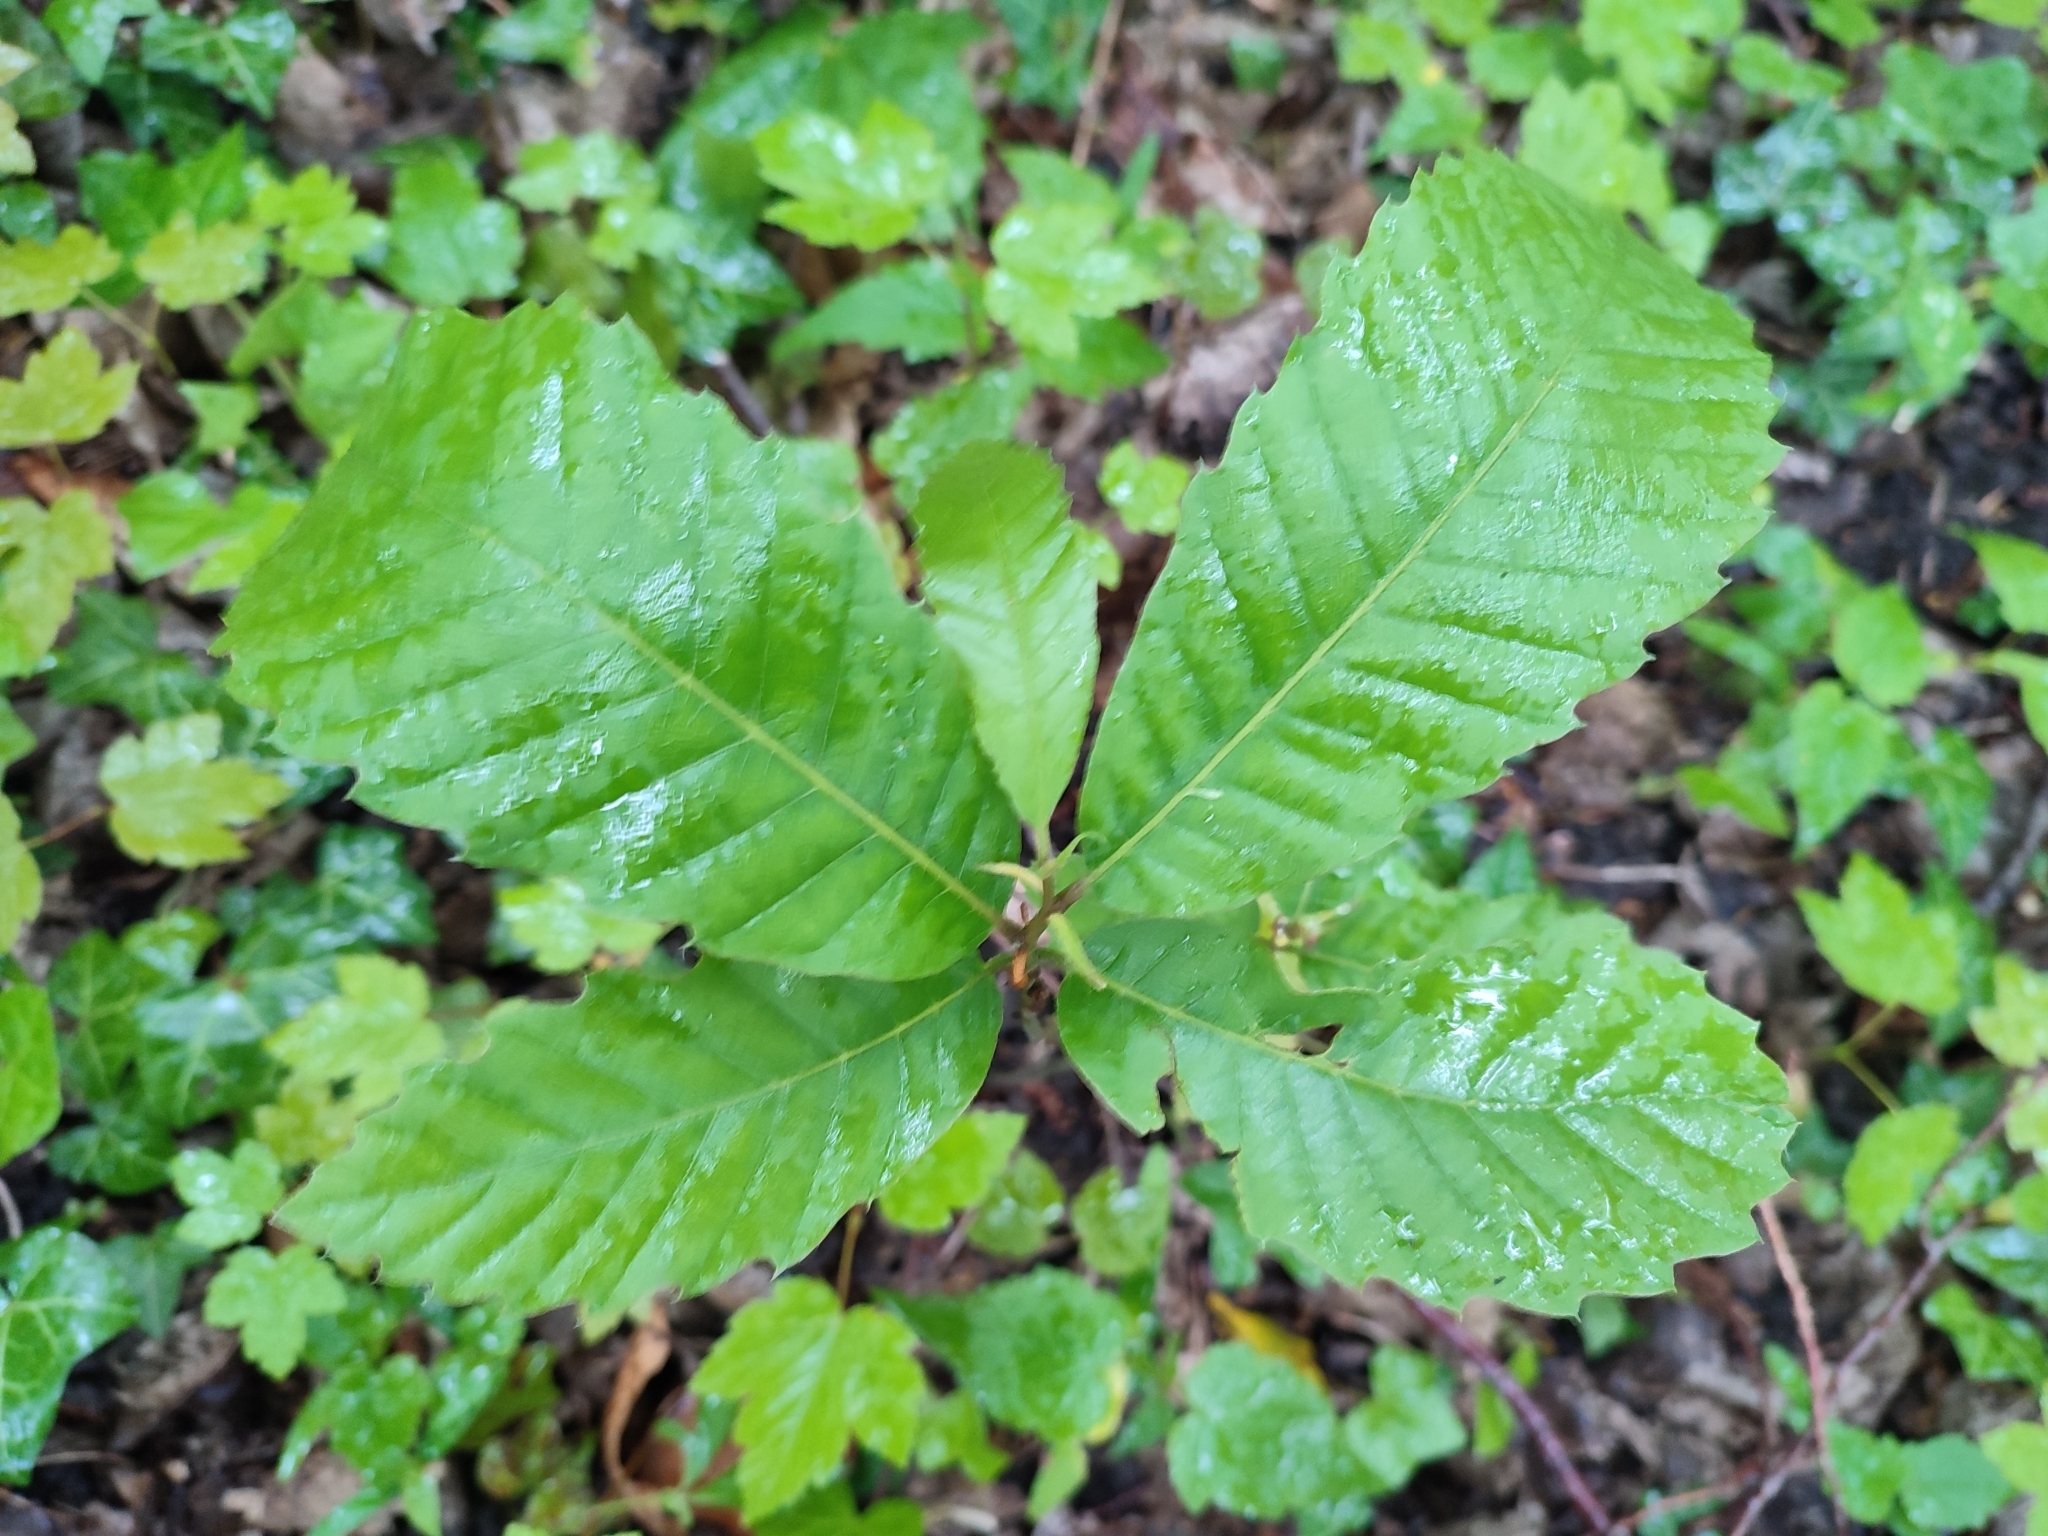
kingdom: Plantae
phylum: Tracheophyta
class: Magnoliopsida
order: Fagales
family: Fagaceae
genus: Castanea
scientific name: Castanea sativa
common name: Sweet chestnut
